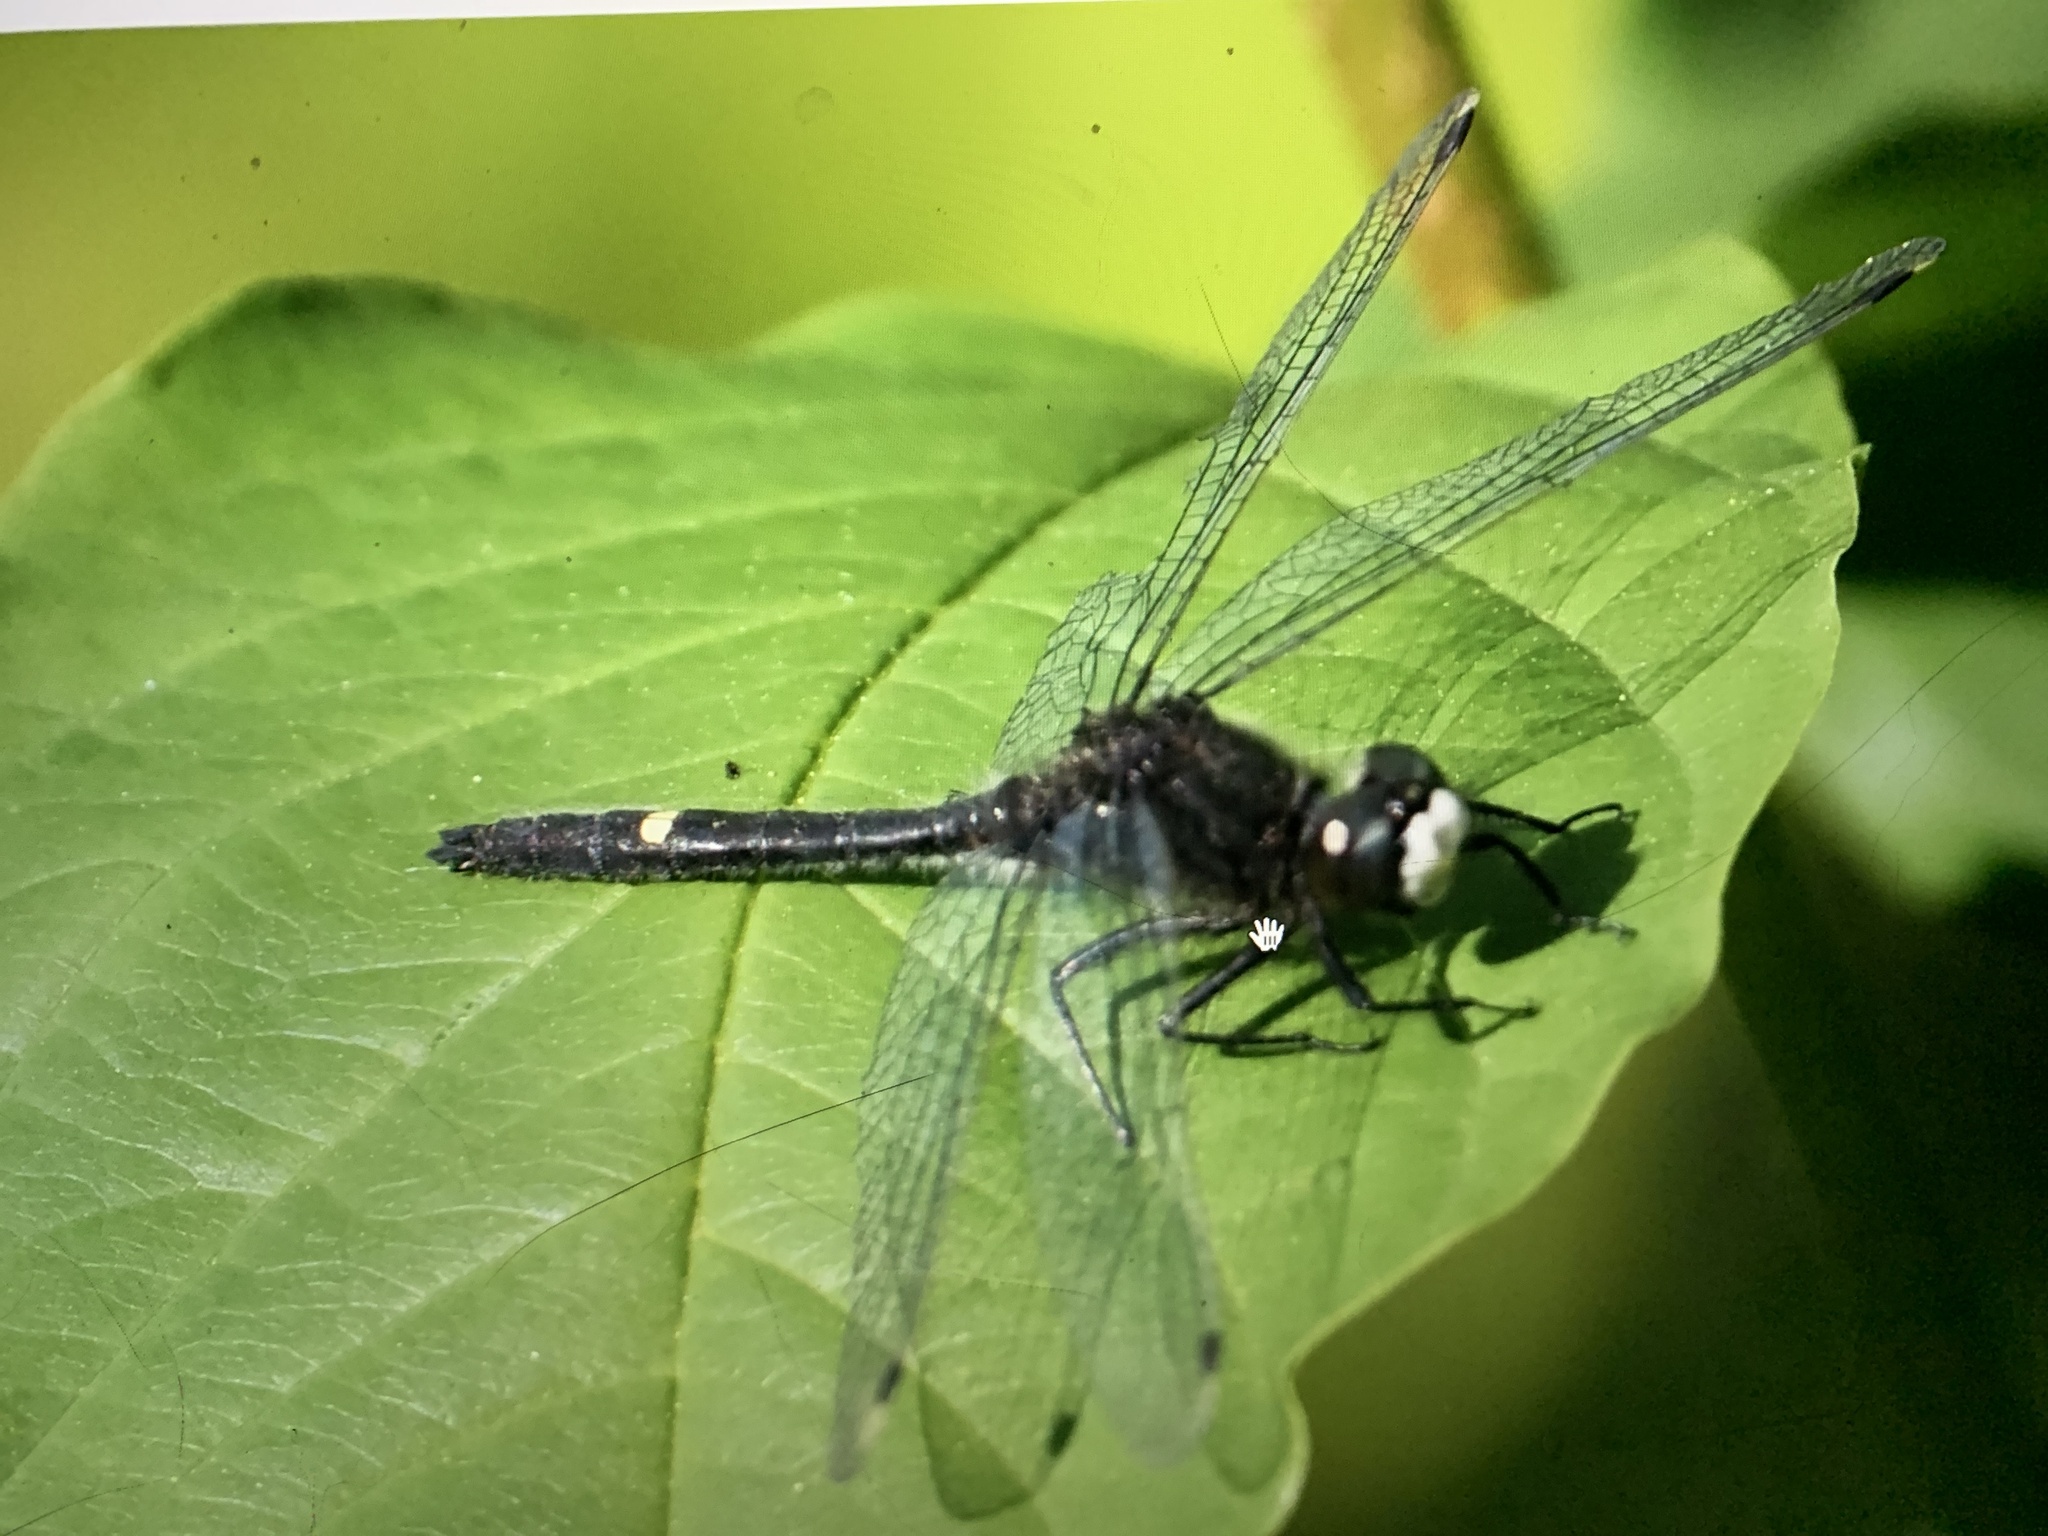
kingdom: Animalia
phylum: Arthropoda
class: Insecta
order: Odonata
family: Libellulidae
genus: Leucorrhinia
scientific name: Leucorrhinia intacta
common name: Dot-tailed whiteface
